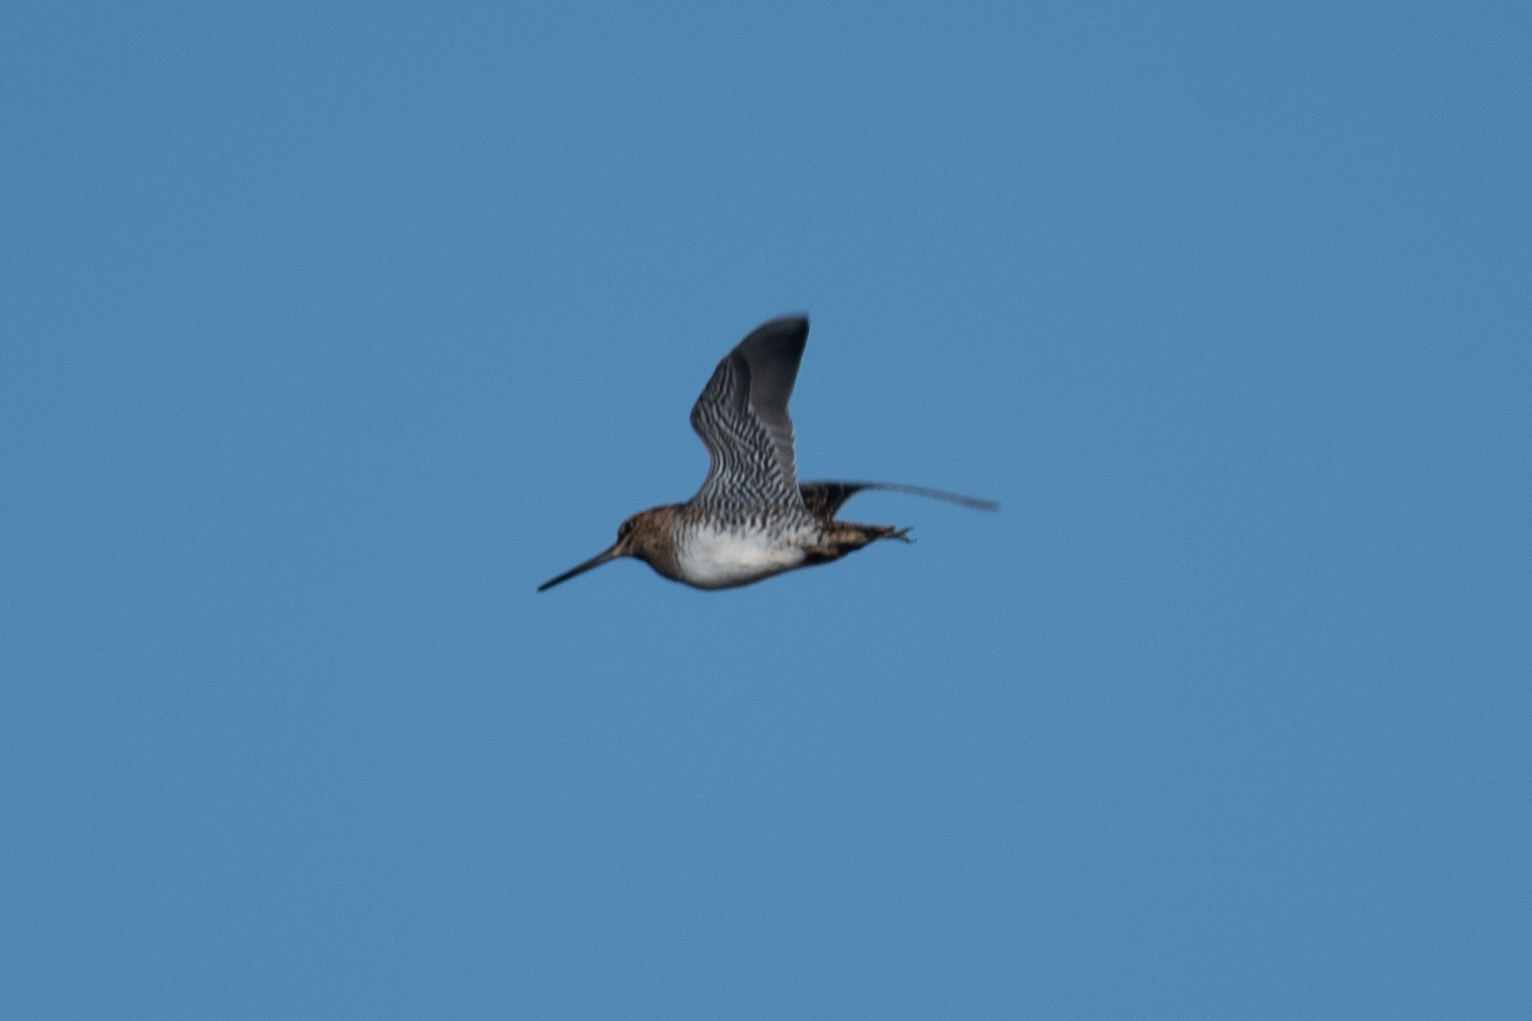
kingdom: Animalia
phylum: Chordata
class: Aves
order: Charadriiformes
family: Scolopacidae
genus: Gallinago
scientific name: Gallinago delicata
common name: Wilson's snipe
